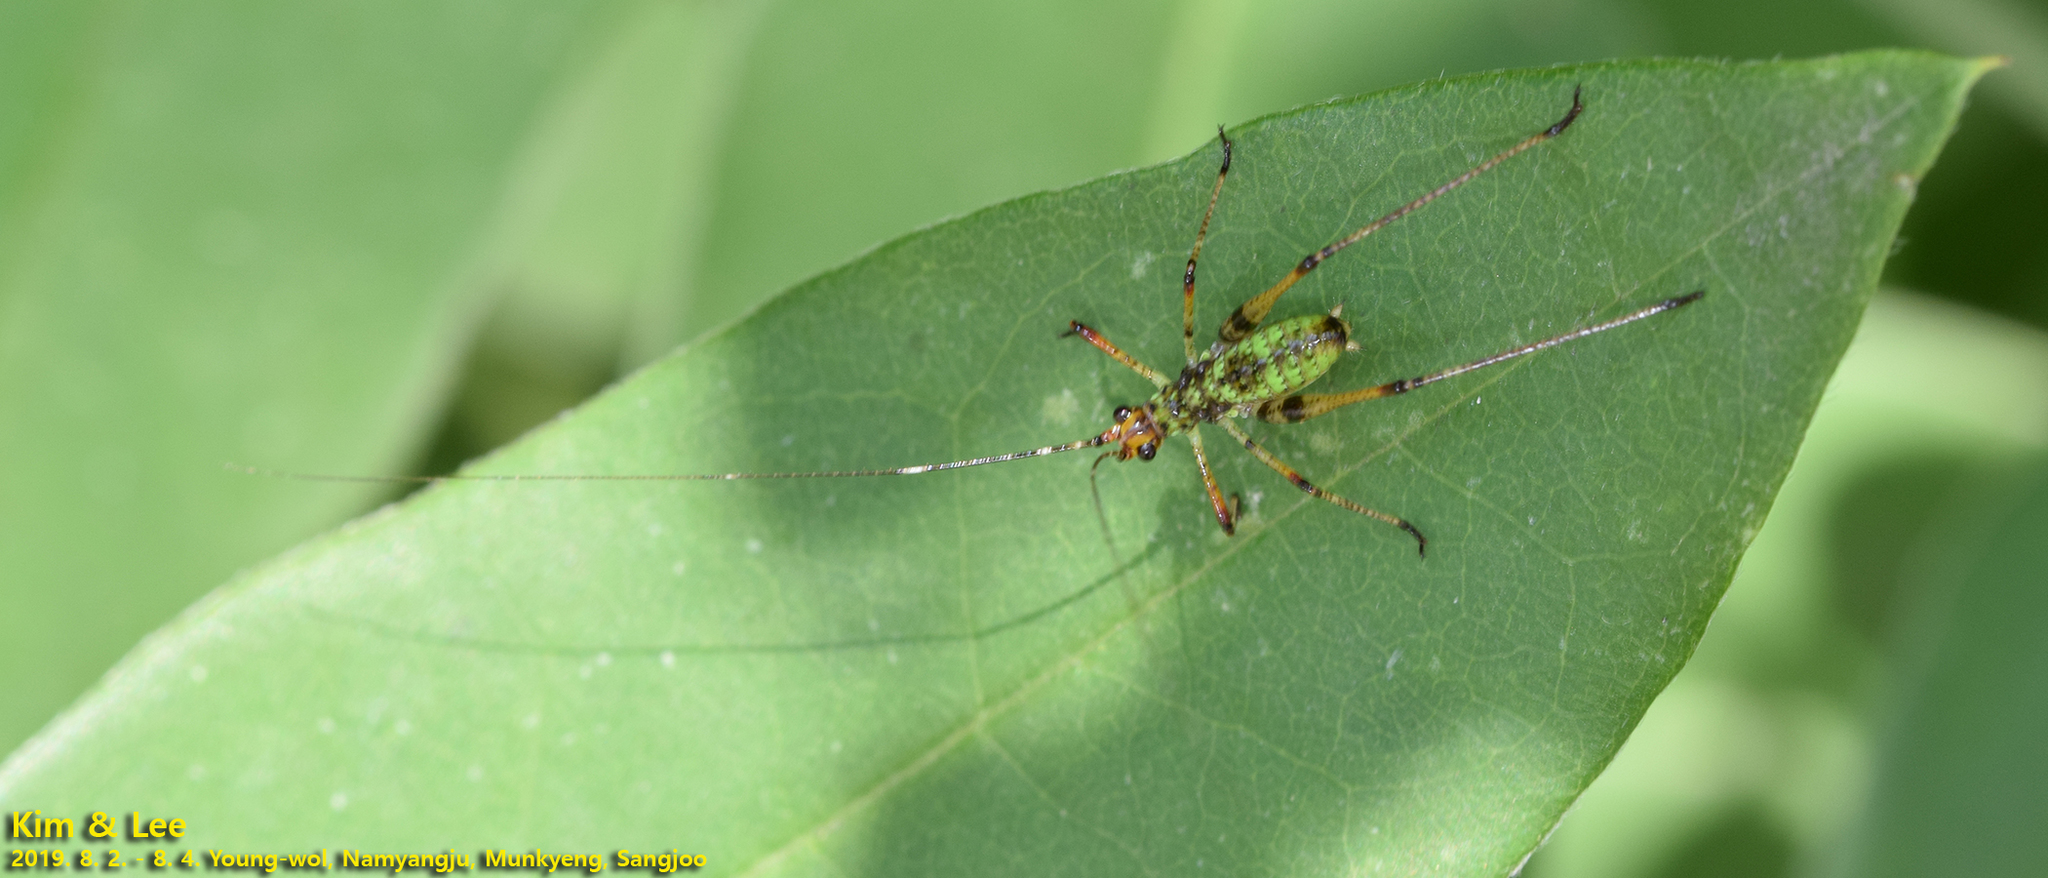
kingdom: Animalia
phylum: Arthropoda
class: Insecta
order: Orthoptera
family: Tettigoniidae
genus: Phaneroptera
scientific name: Phaneroptera nigroantennata
